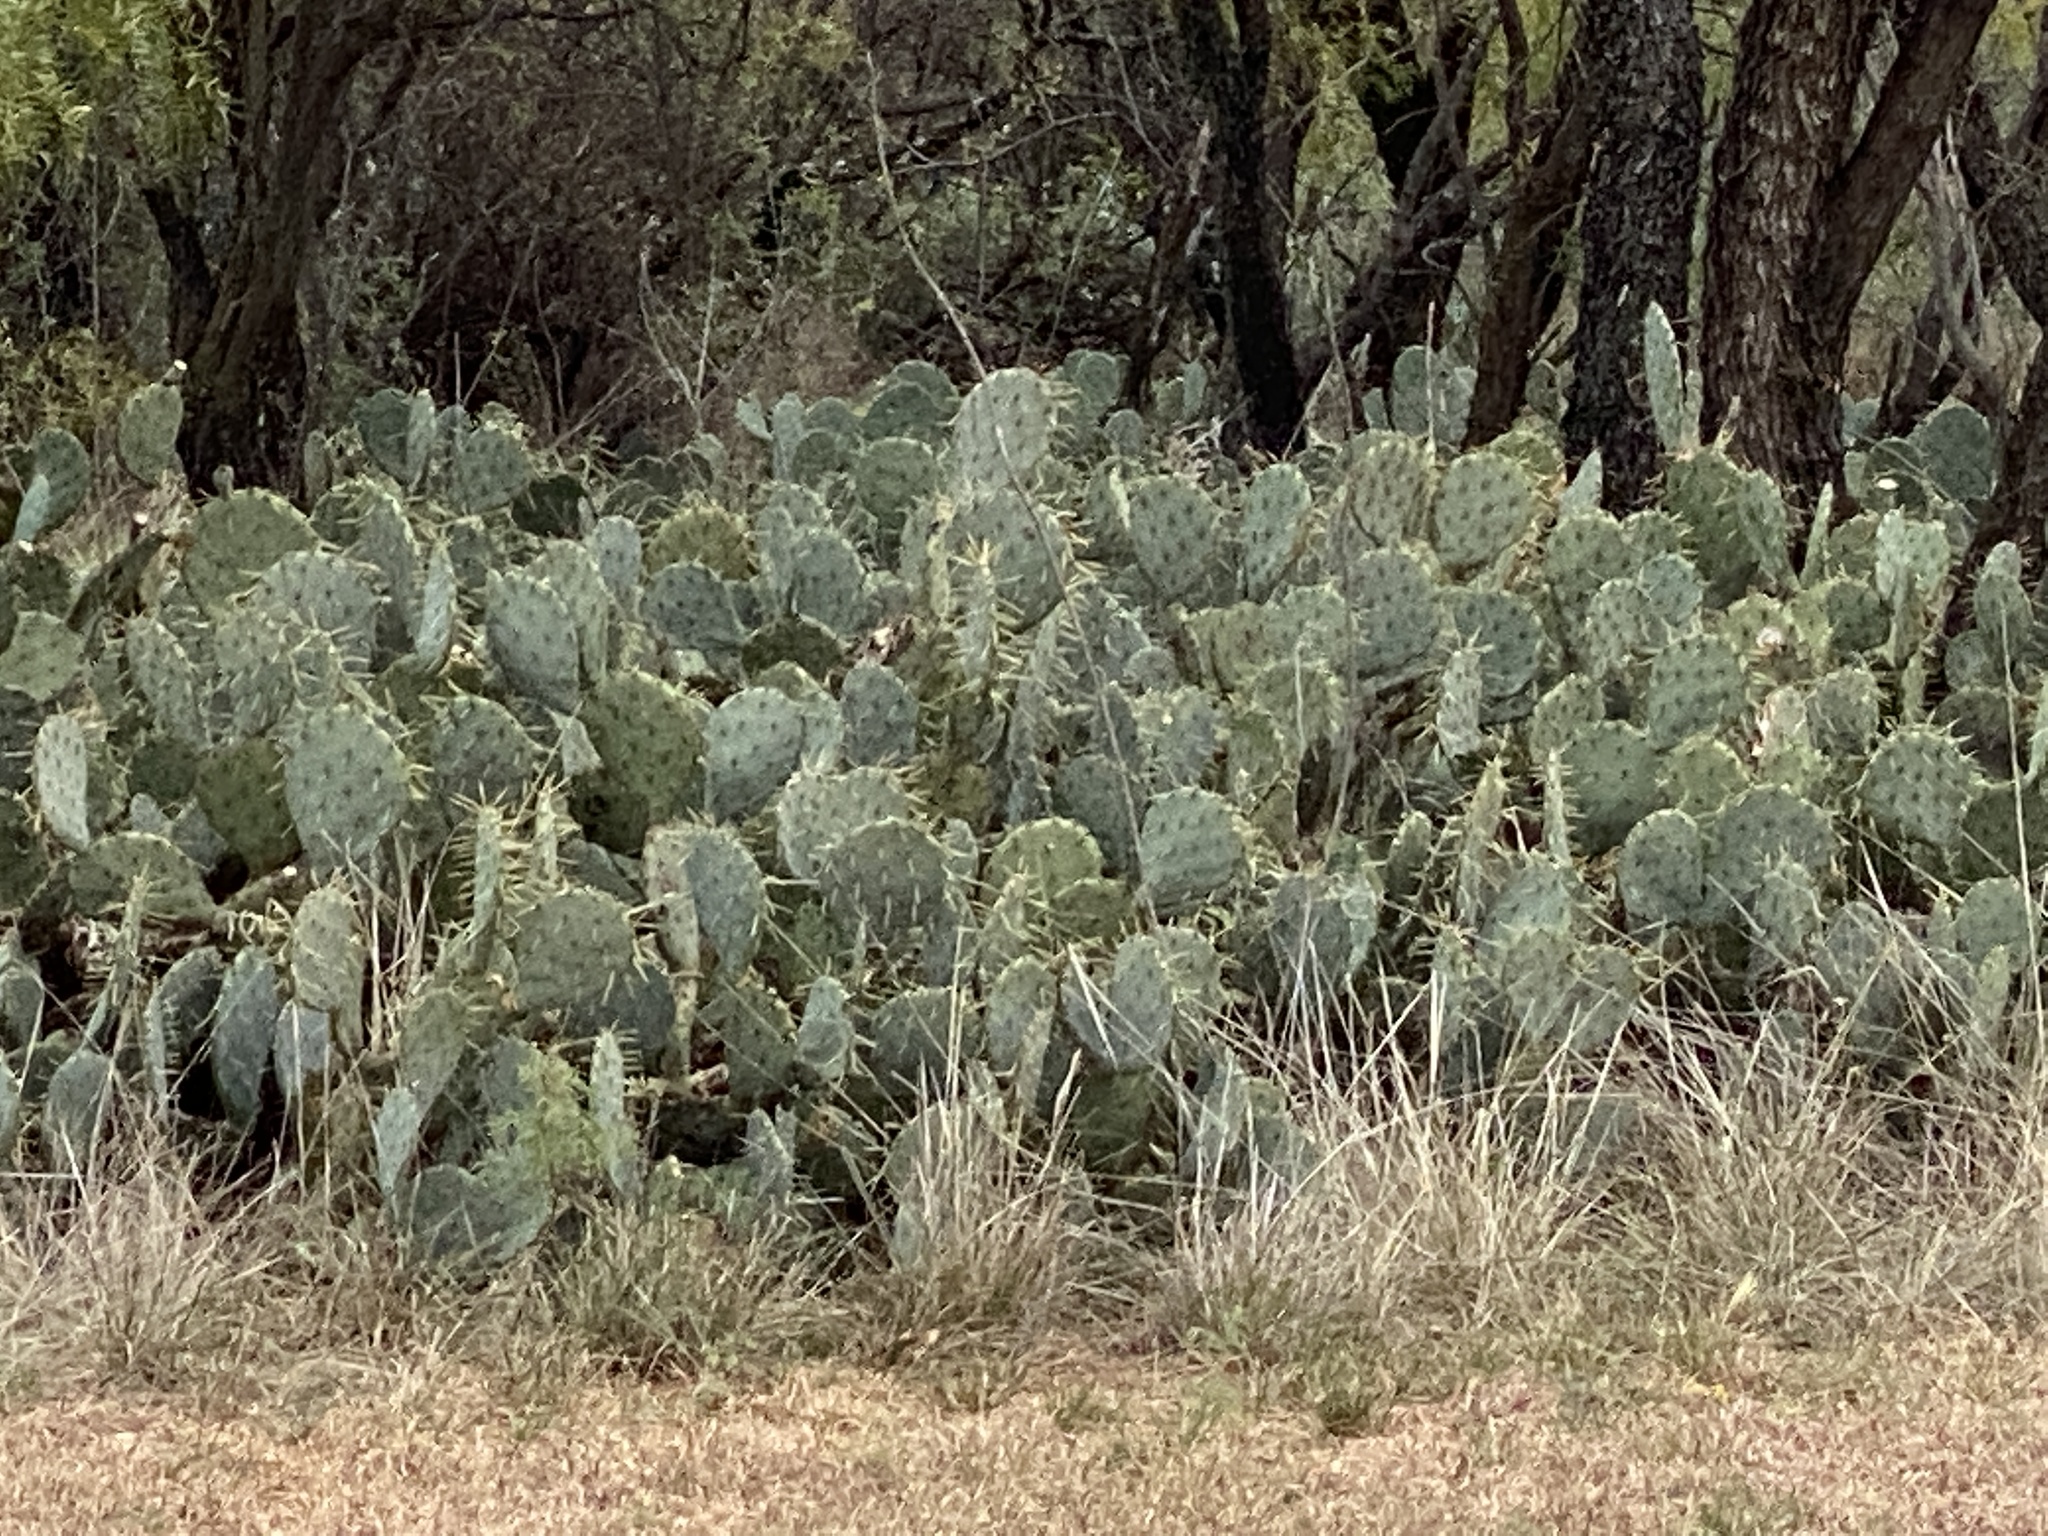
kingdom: Plantae
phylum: Tracheophyta
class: Magnoliopsida
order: Caryophyllales
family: Cactaceae
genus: Opuntia
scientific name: Opuntia engelmannii
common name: Cactus-apple
